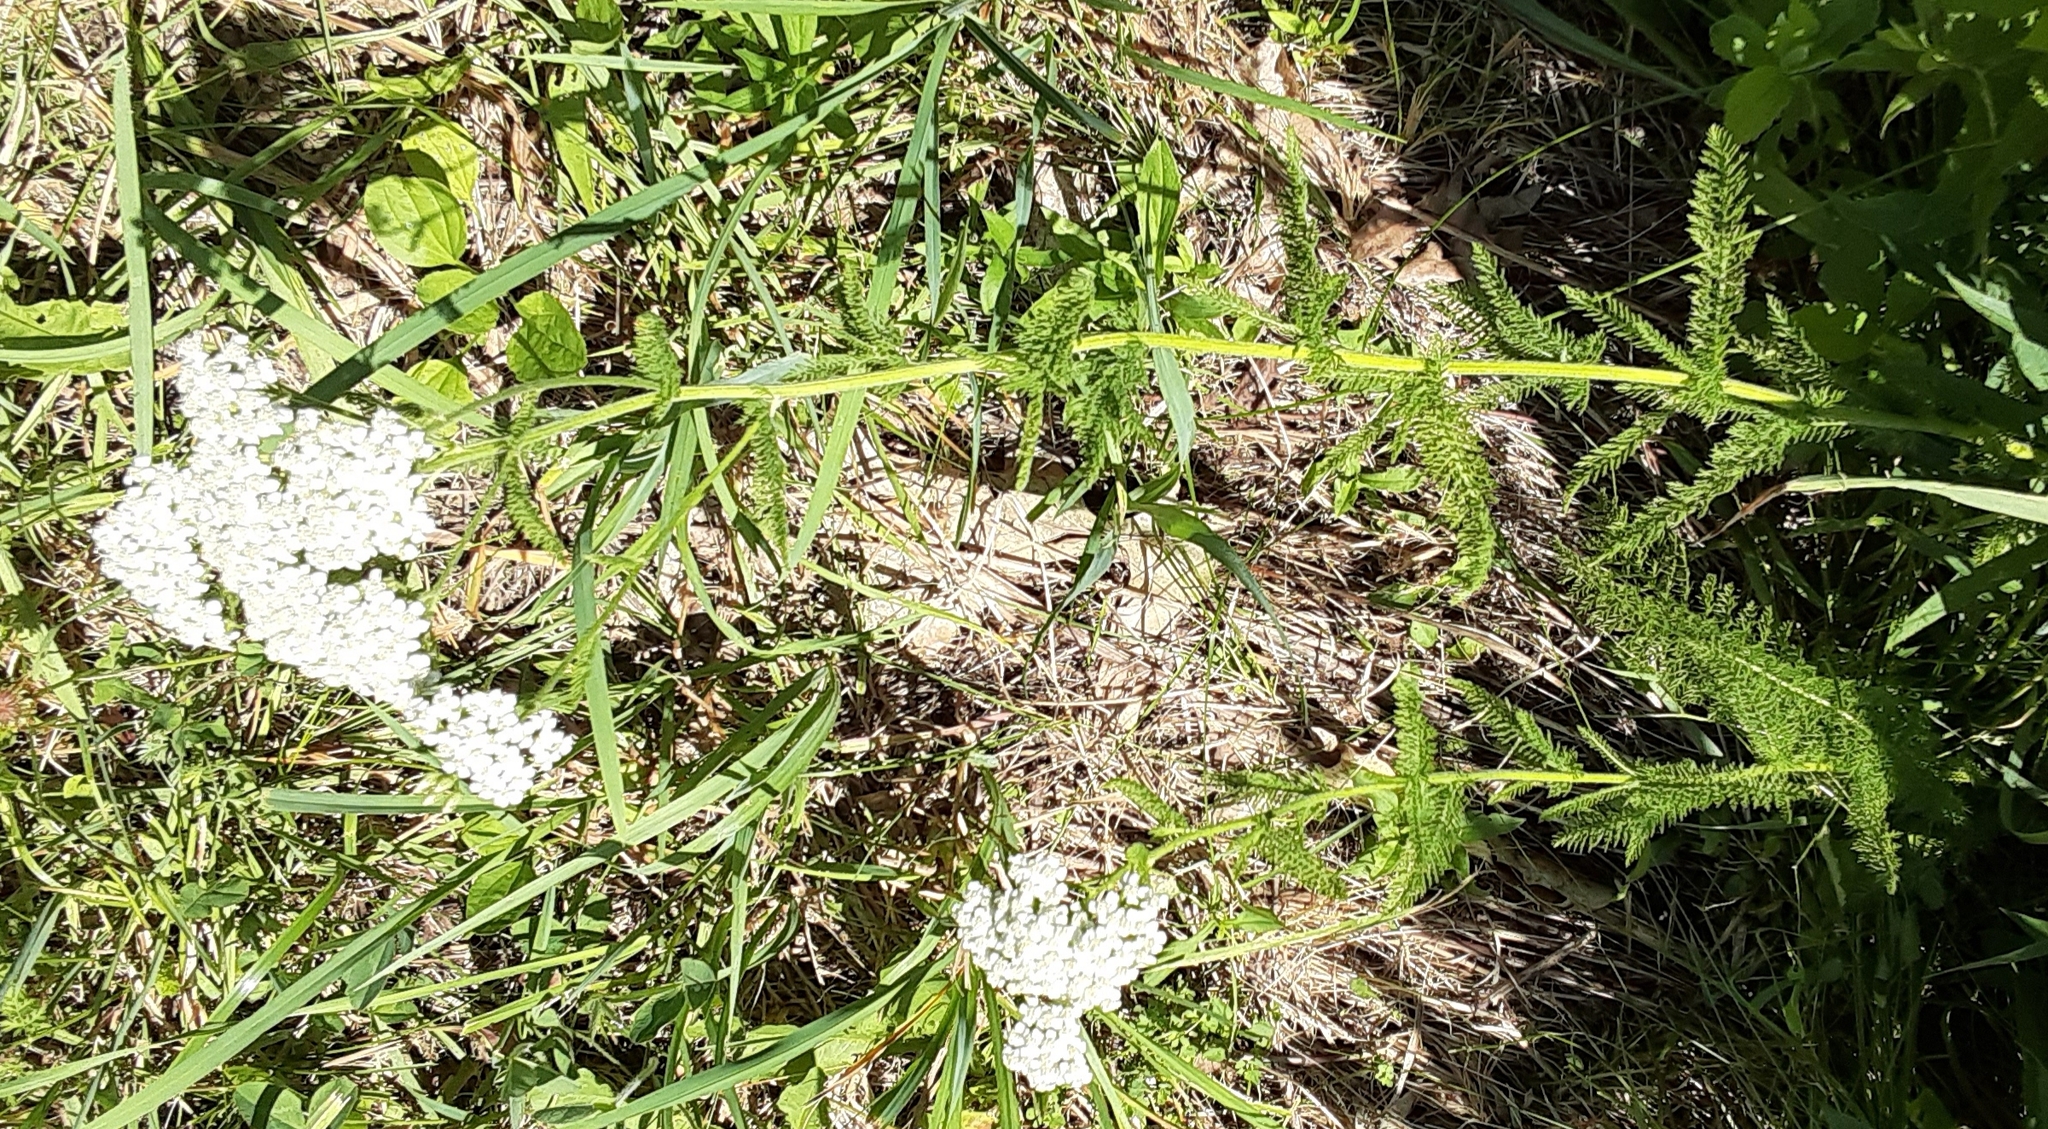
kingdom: Plantae
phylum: Tracheophyta
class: Magnoliopsida
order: Asterales
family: Asteraceae
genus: Achillea
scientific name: Achillea millefolium
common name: Yarrow
